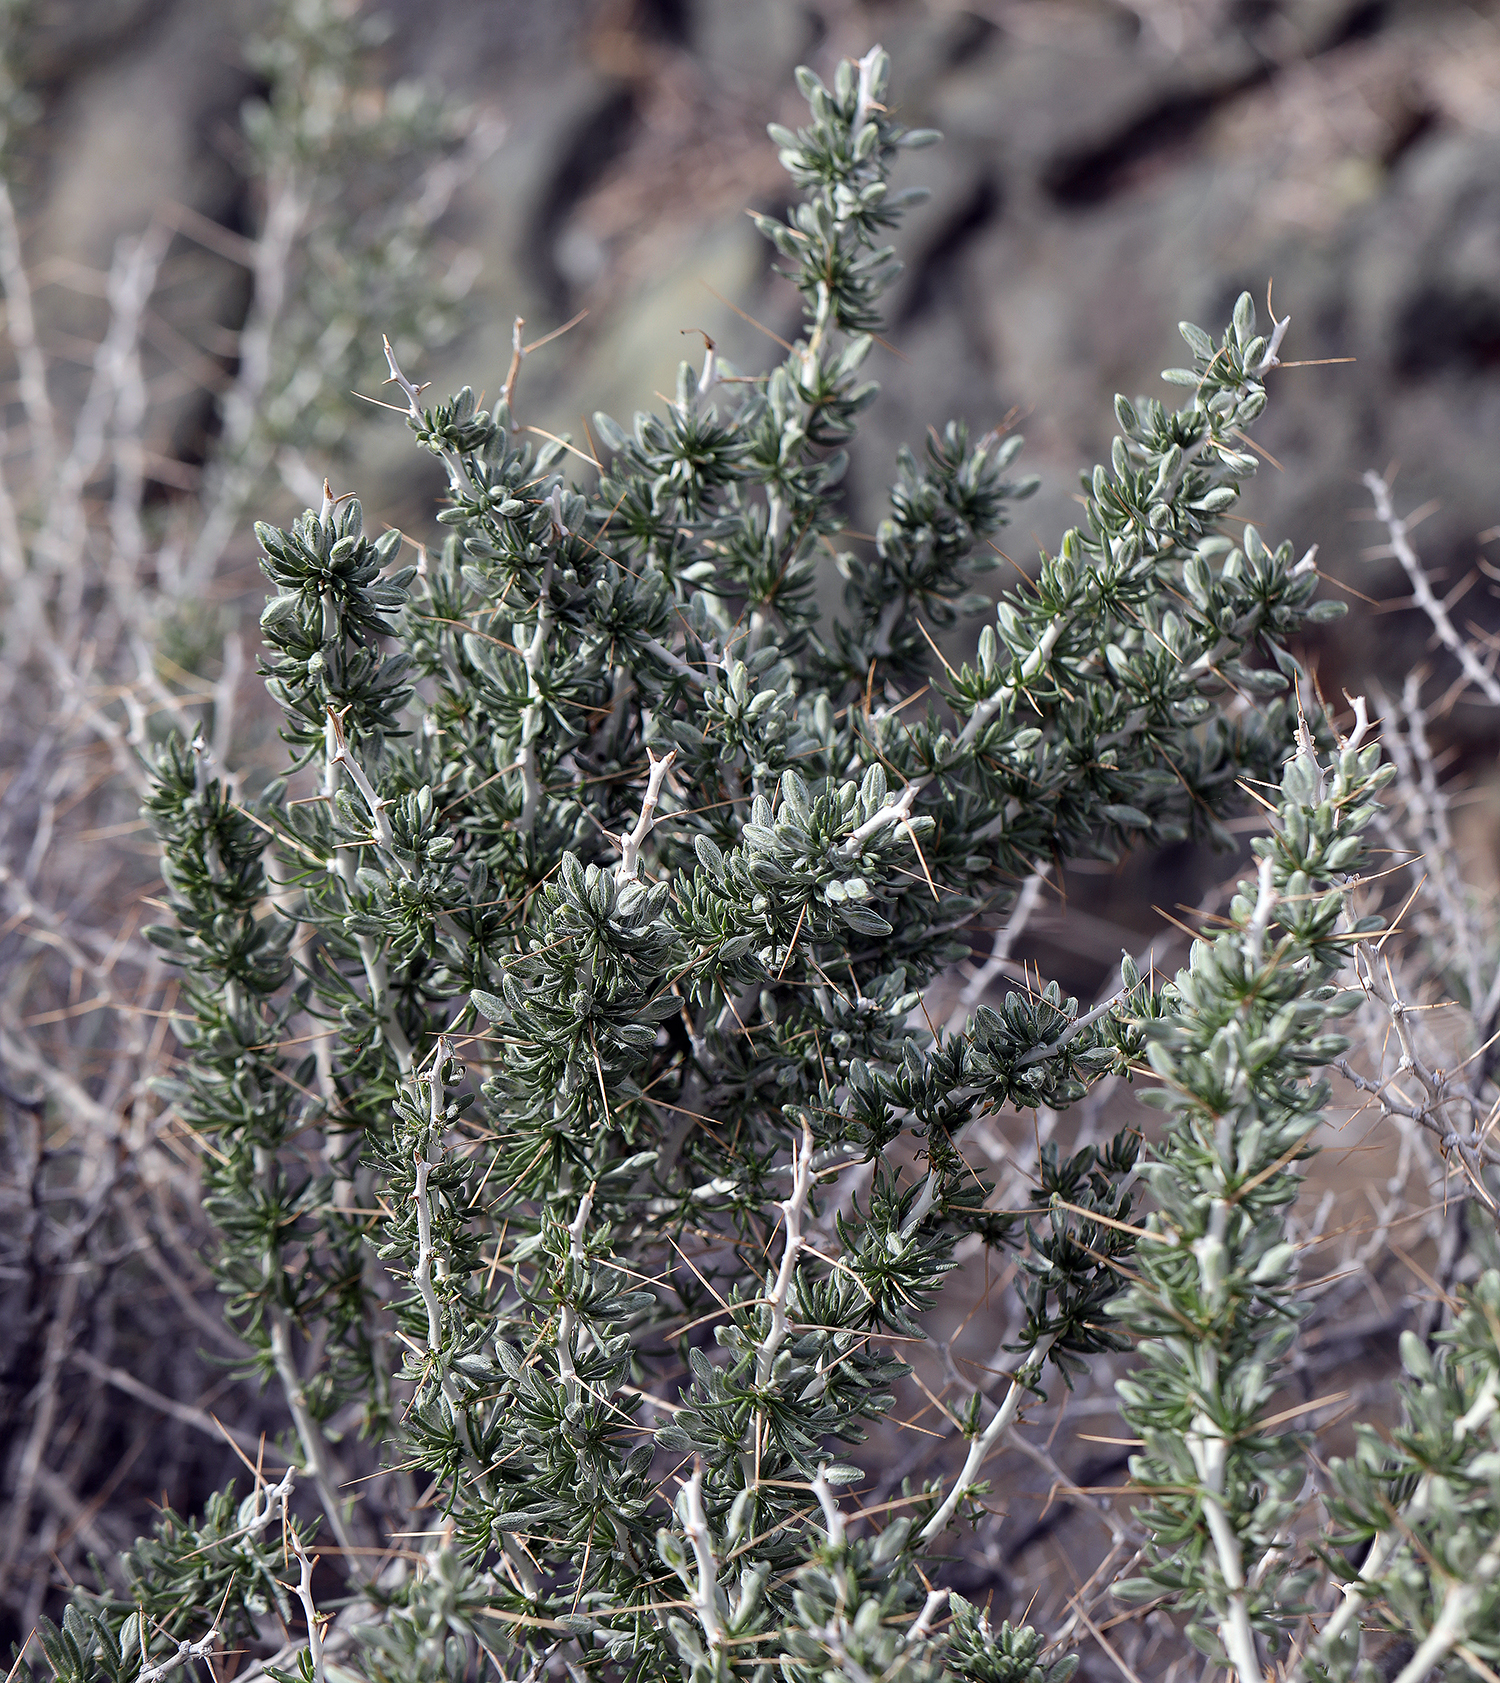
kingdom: Plantae
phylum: Tracheophyta
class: Magnoliopsida
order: Asterales
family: Asteraceae
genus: Tetradymia
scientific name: Tetradymia axillaris
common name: Long-spine horsebrush
